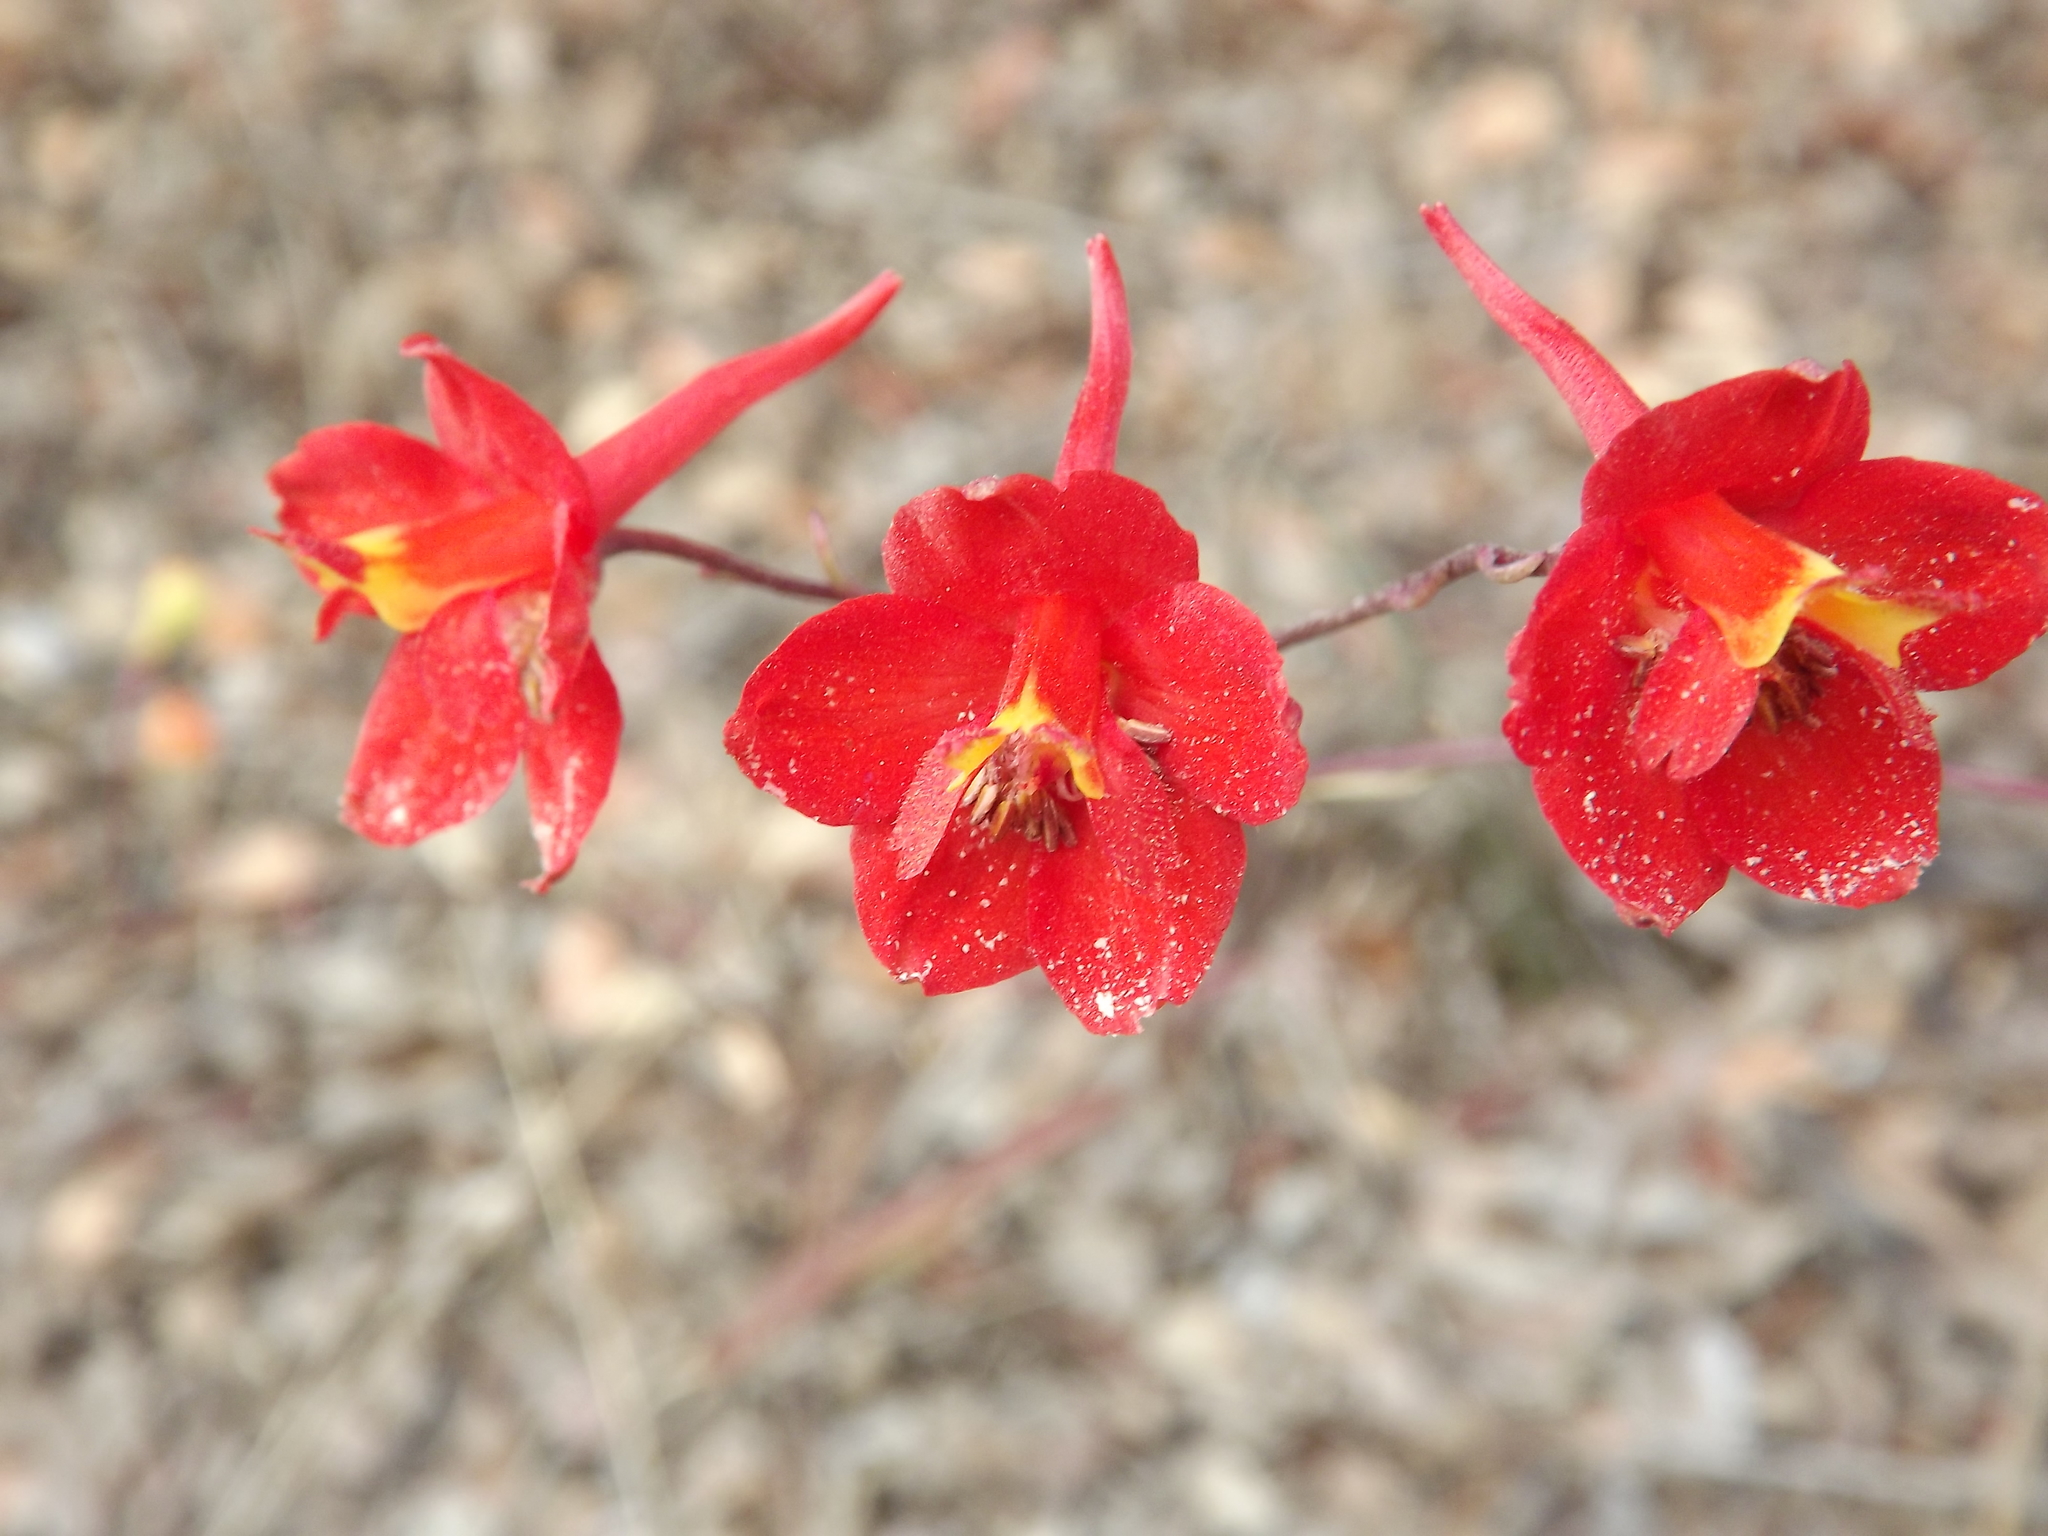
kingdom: Plantae
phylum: Tracheophyta
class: Magnoliopsida
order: Ranunculales
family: Ranunculaceae
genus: Delphinium
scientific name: Delphinium cardinale
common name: Scarlet larkspur
